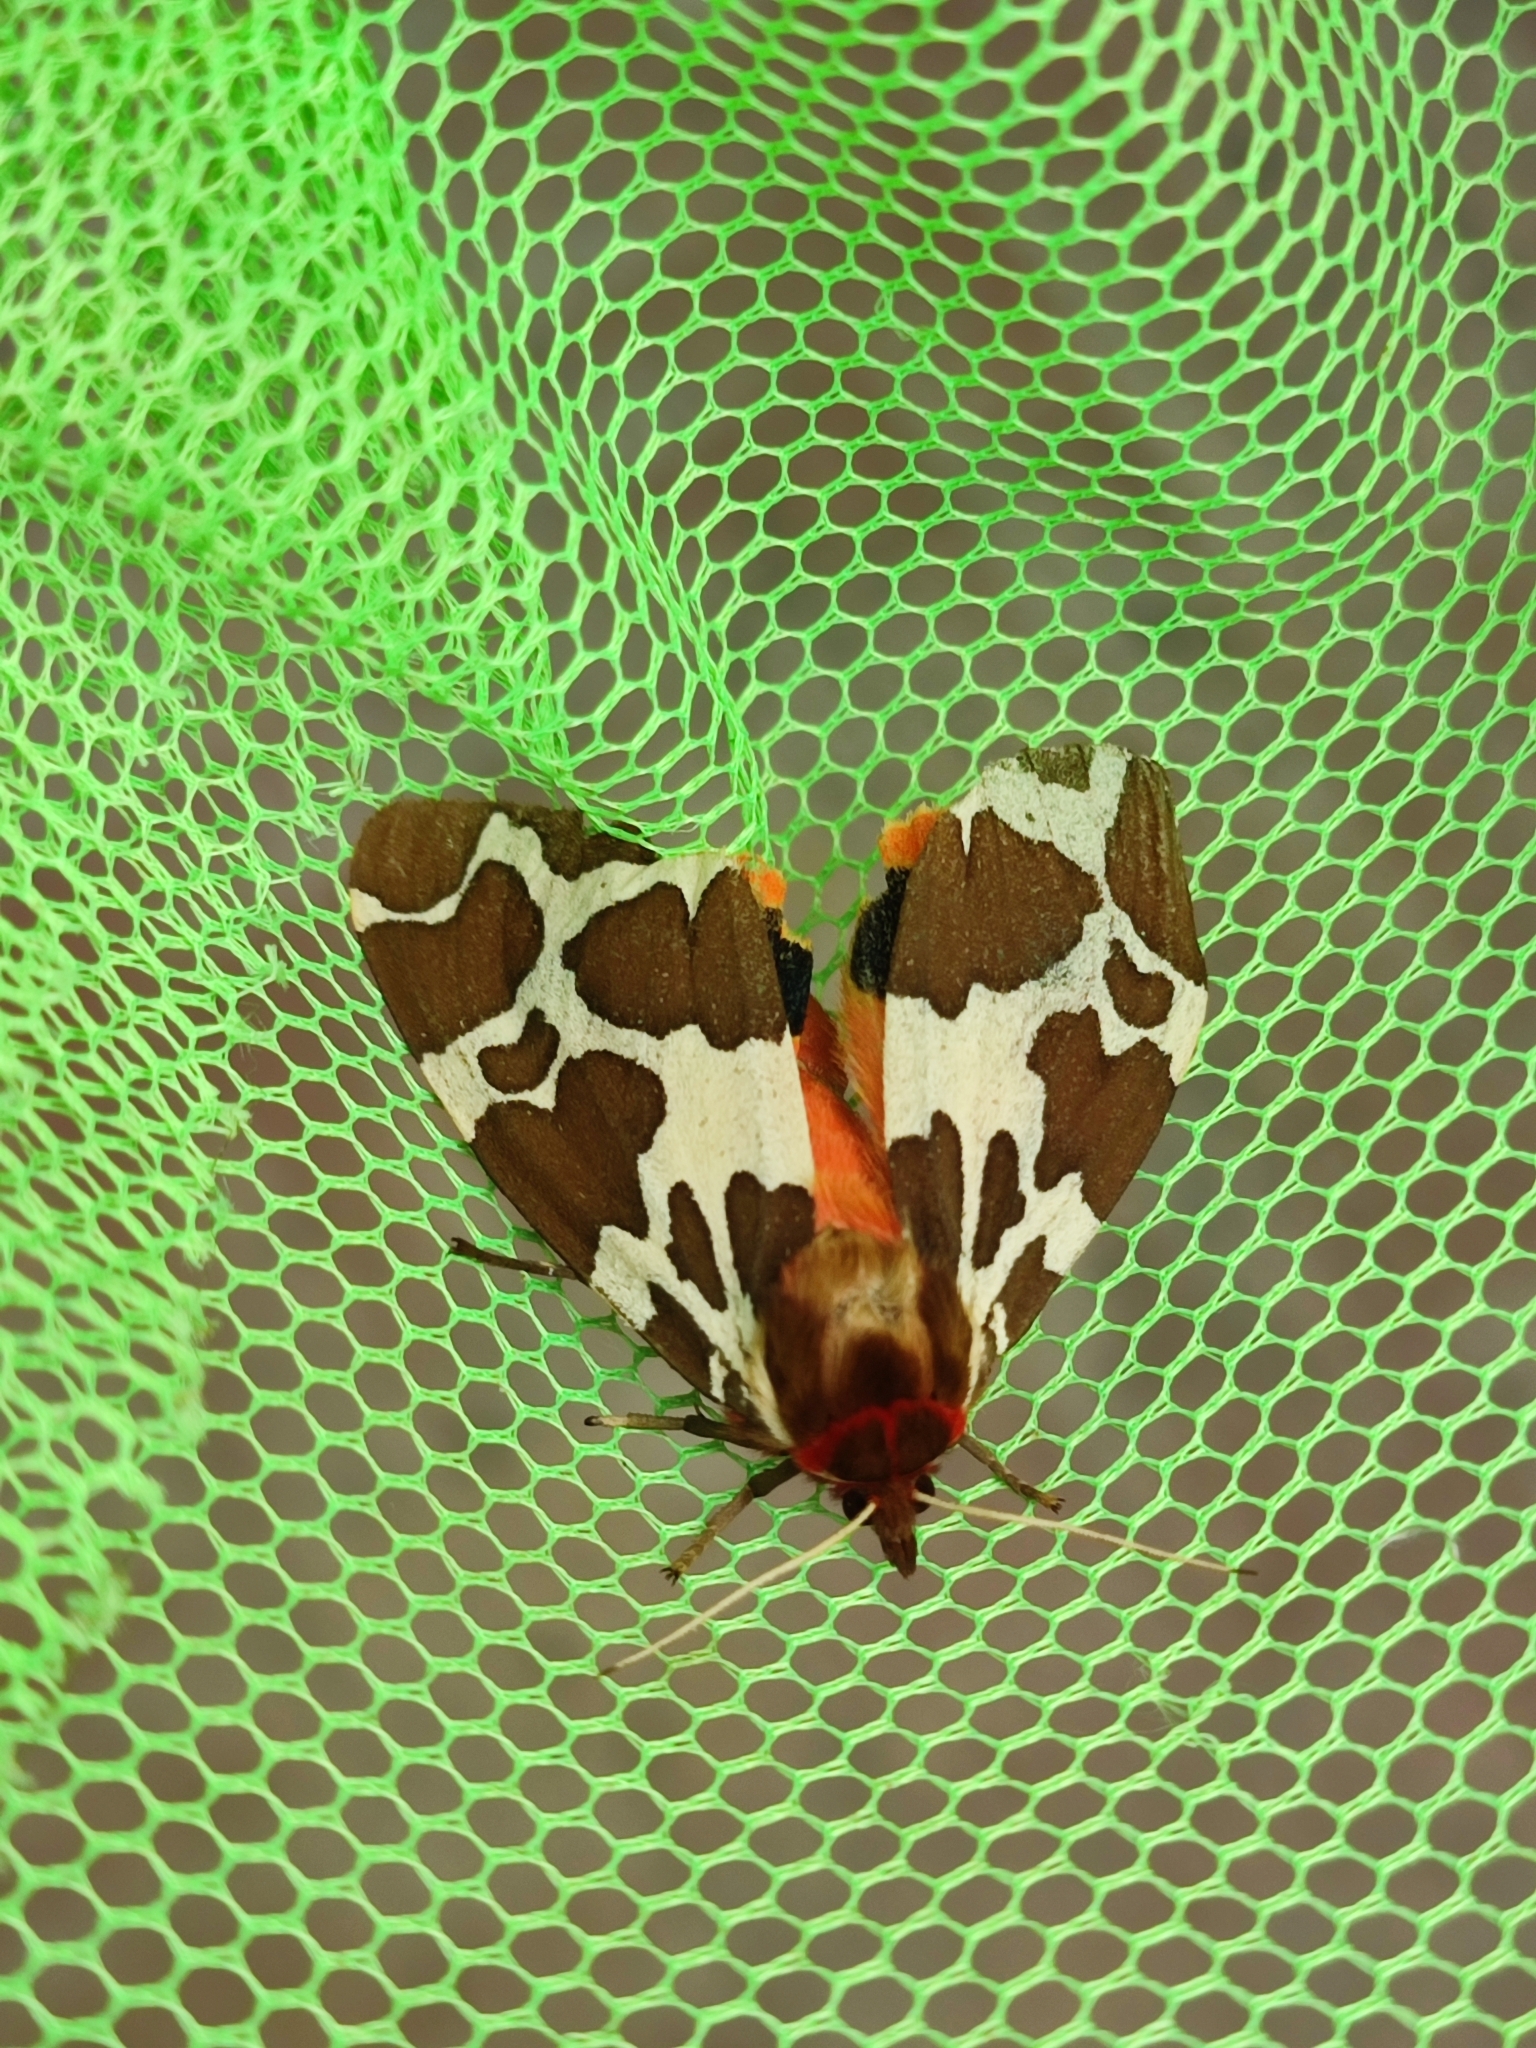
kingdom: Animalia
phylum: Arthropoda
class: Insecta
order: Lepidoptera
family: Erebidae
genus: Arctia
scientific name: Arctia caja
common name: Garden tiger
